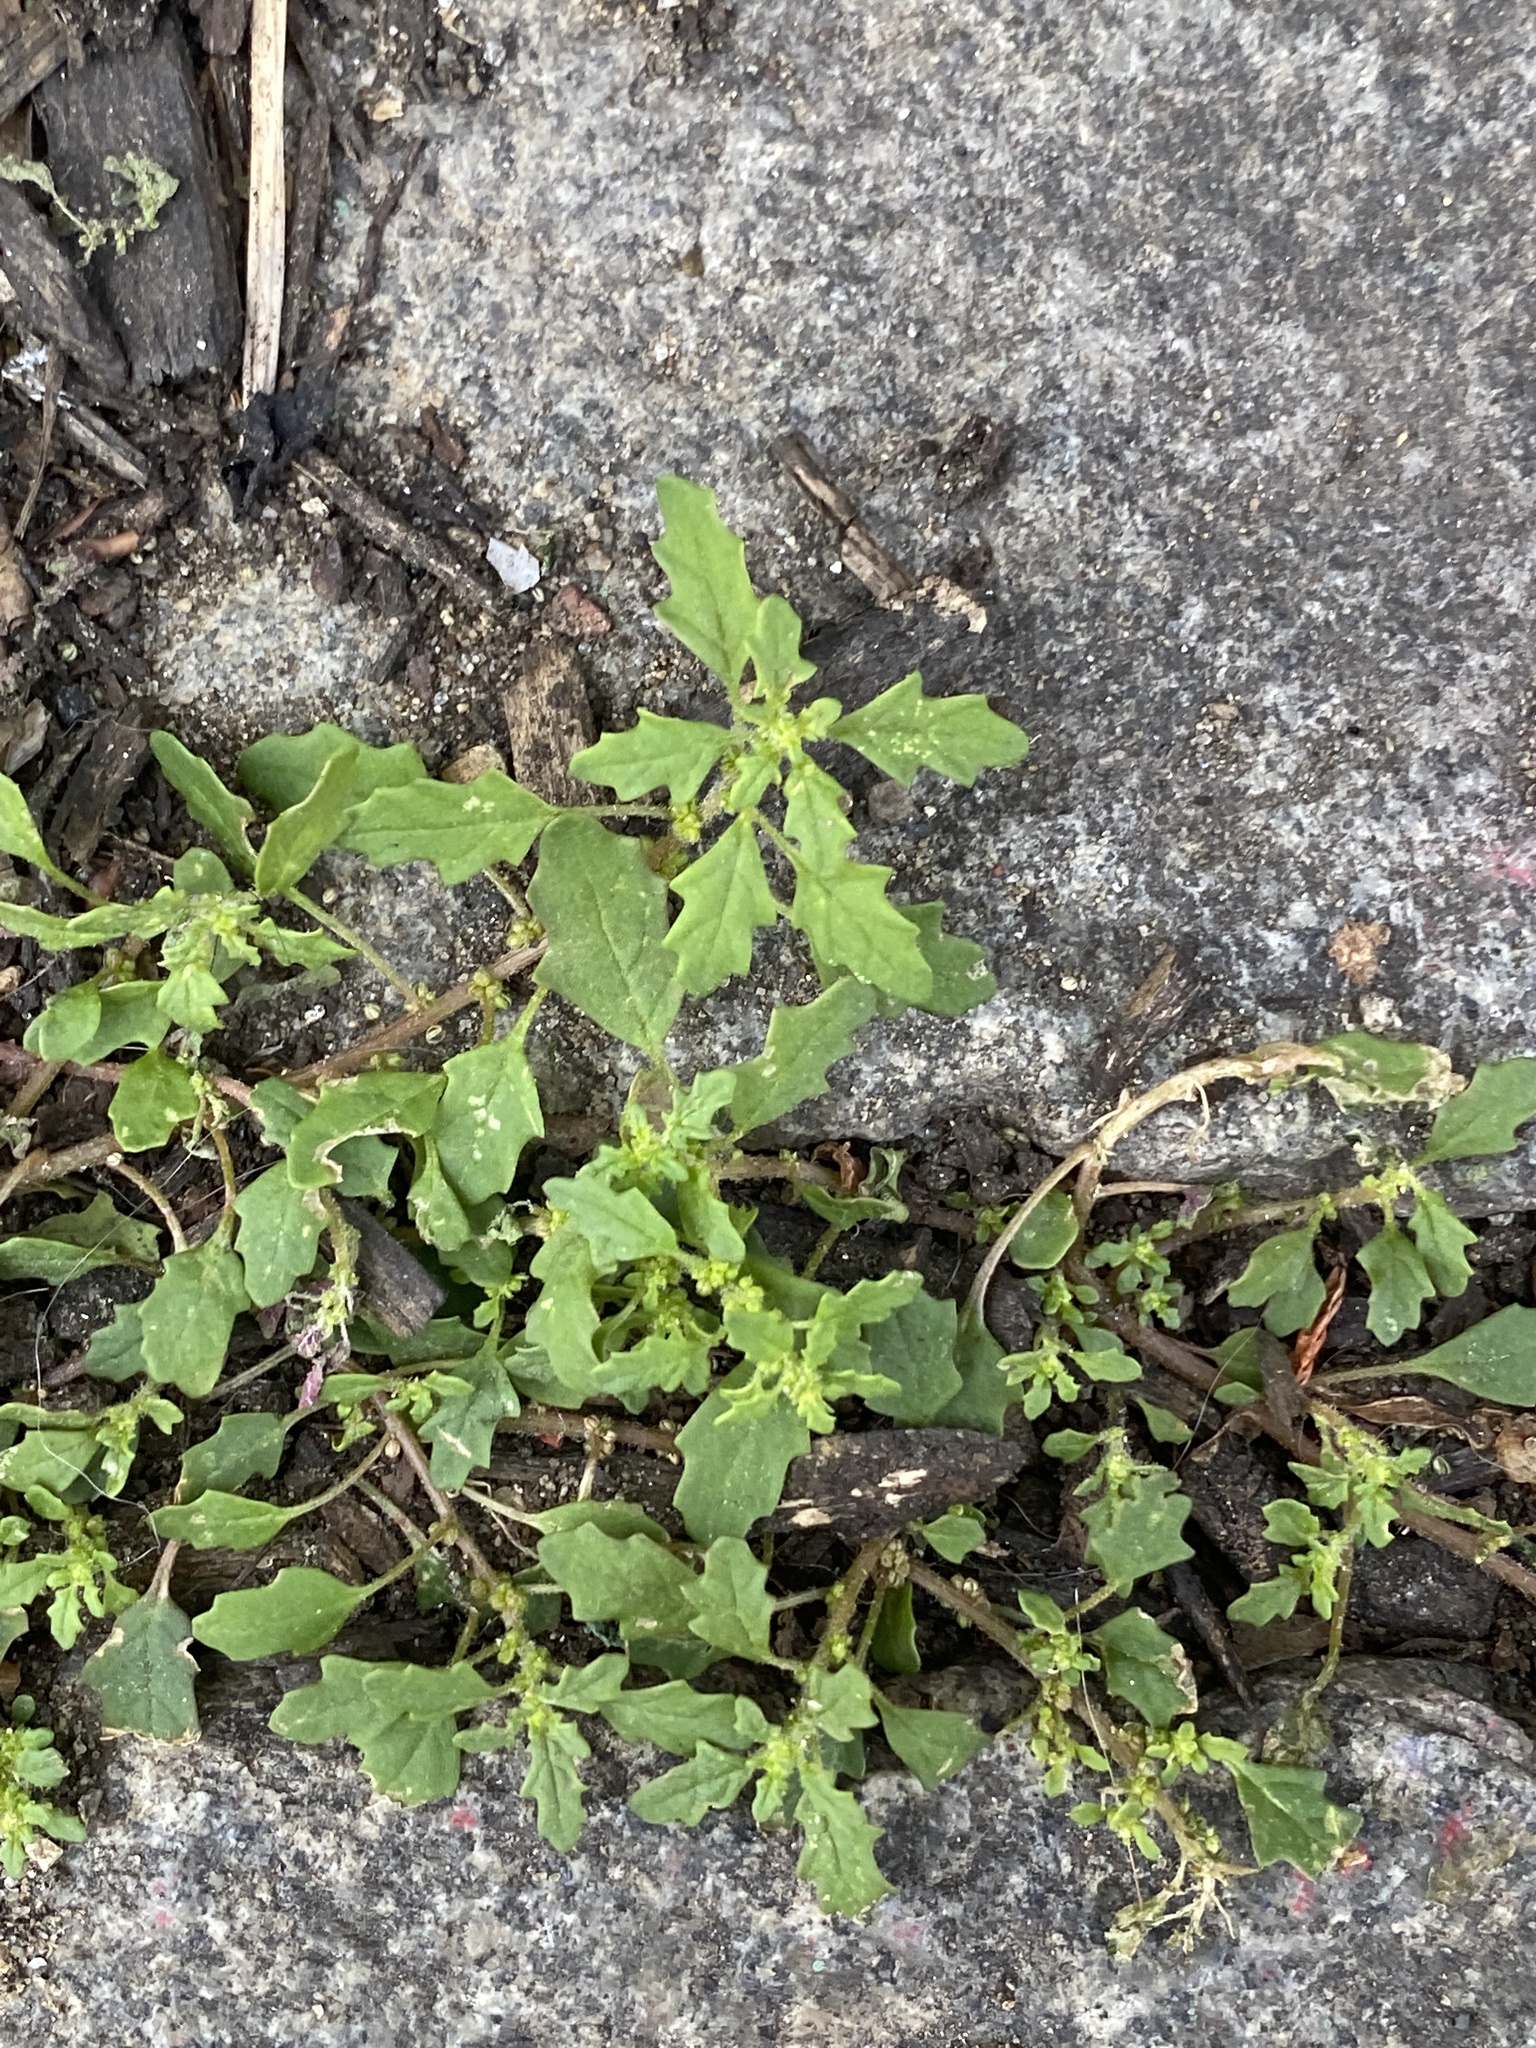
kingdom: Plantae
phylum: Tracheophyta
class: Magnoliopsida
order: Caryophyllales
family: Amaranthaceae
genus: Dysphania
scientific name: Dysphania pumilio
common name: Clammy goosefoot
